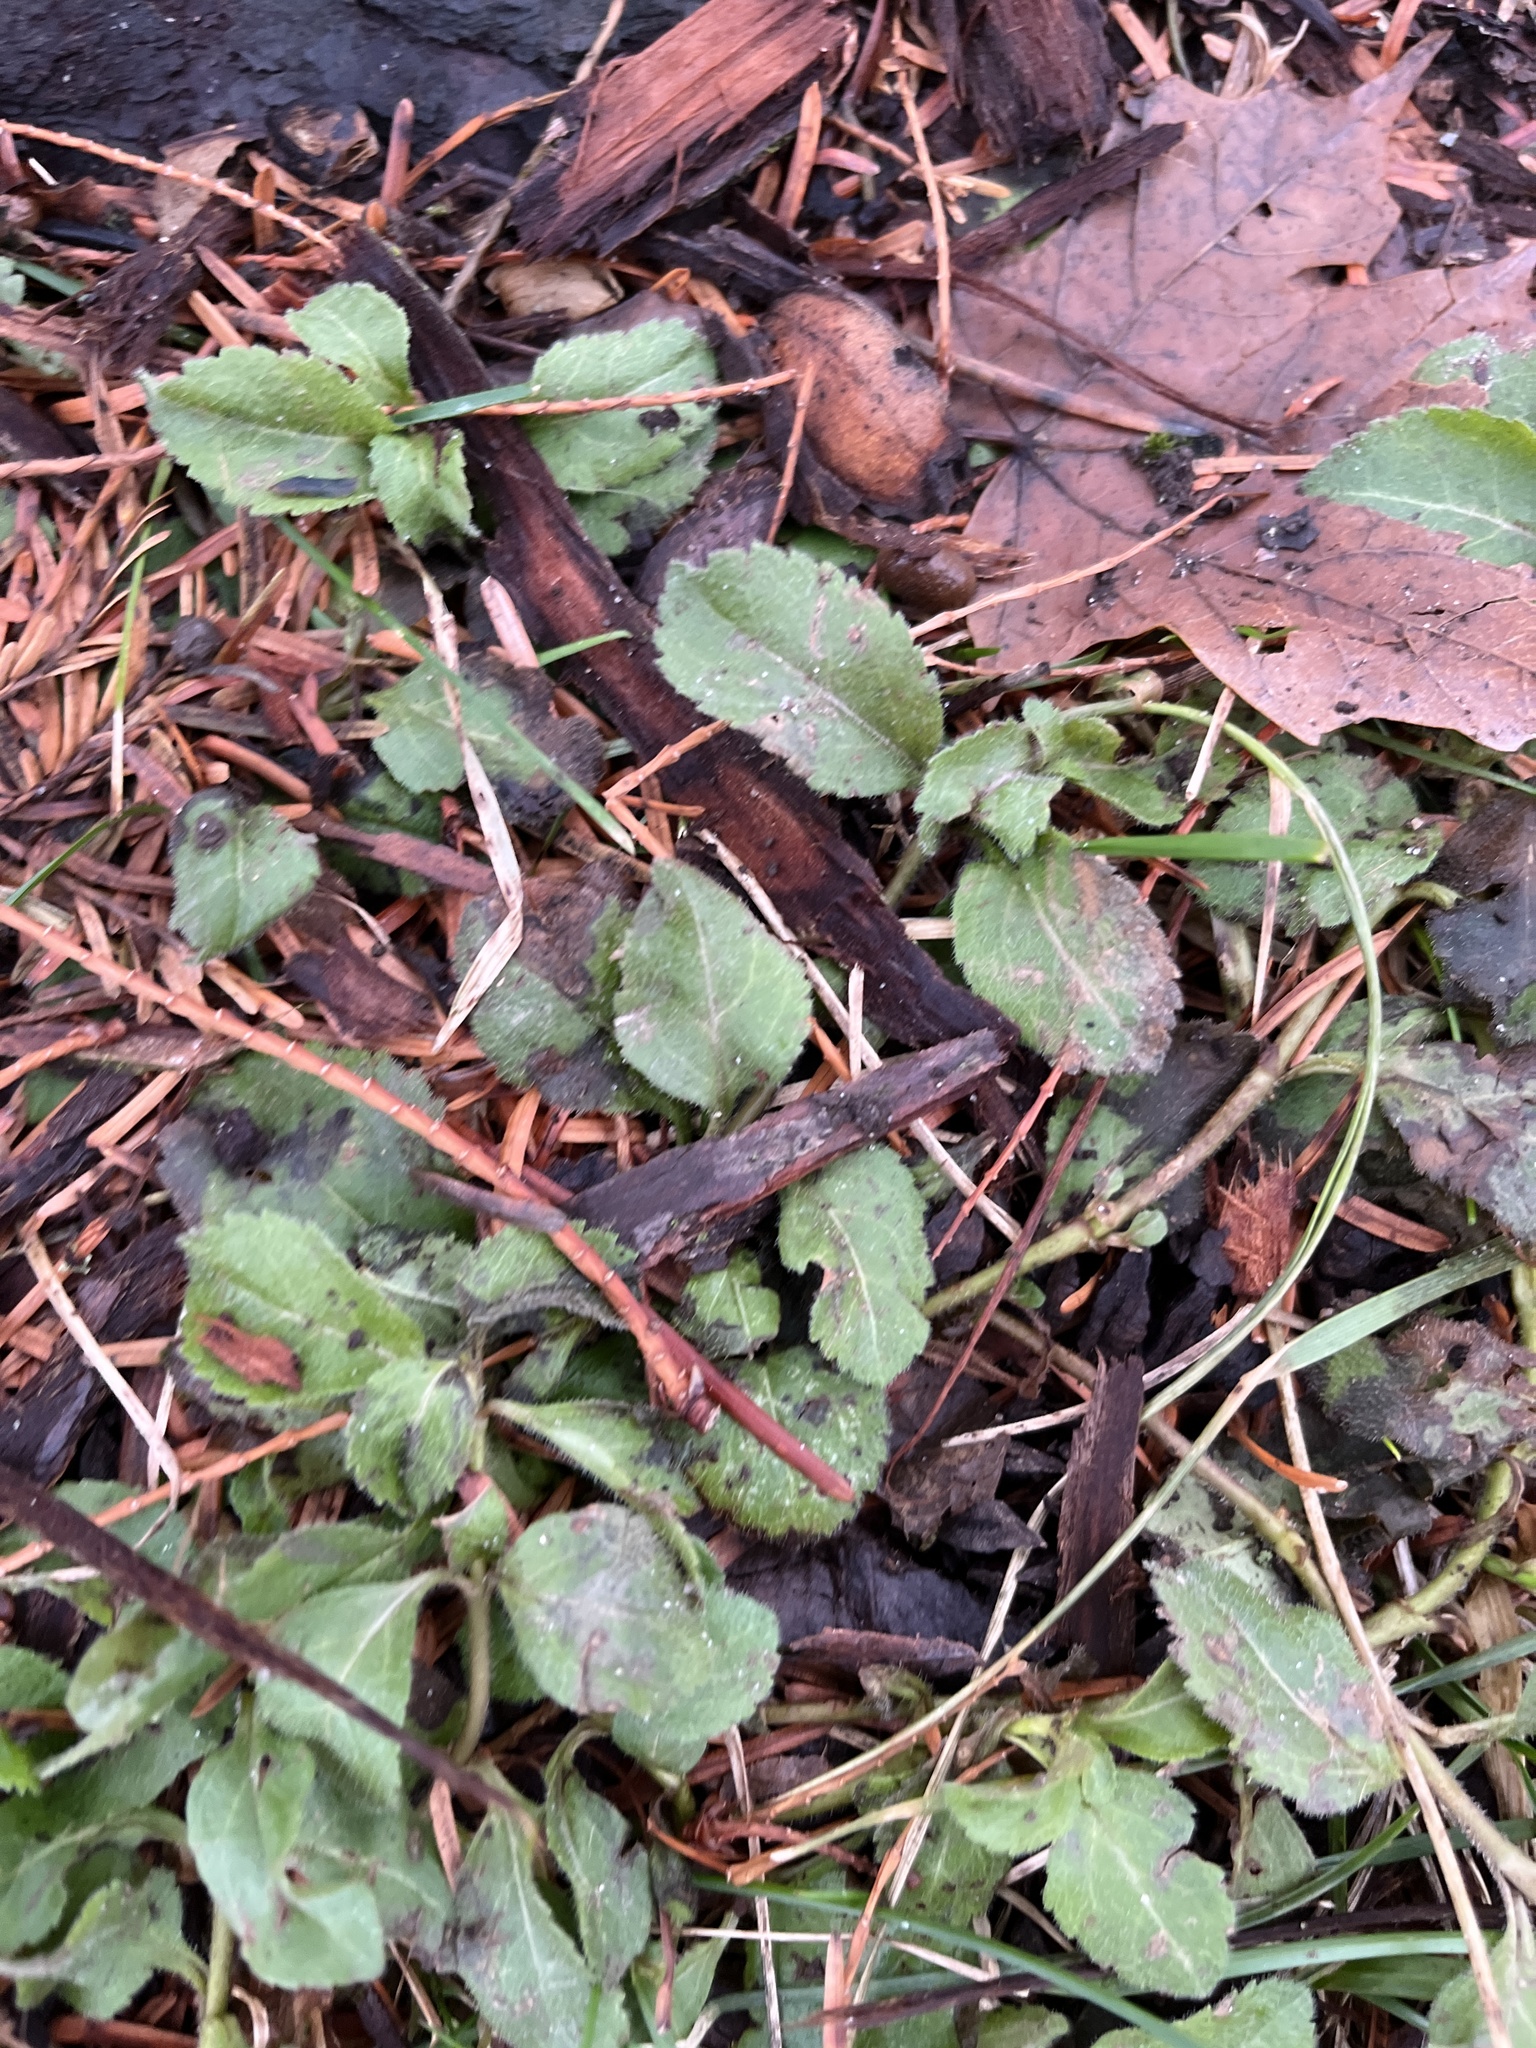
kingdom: Plantae
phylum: Tracheophyta
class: Magnoliopsida
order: Lamiales
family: Plantaginaceae
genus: Veronica
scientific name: Veronica officinalis
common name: Common speedwell
